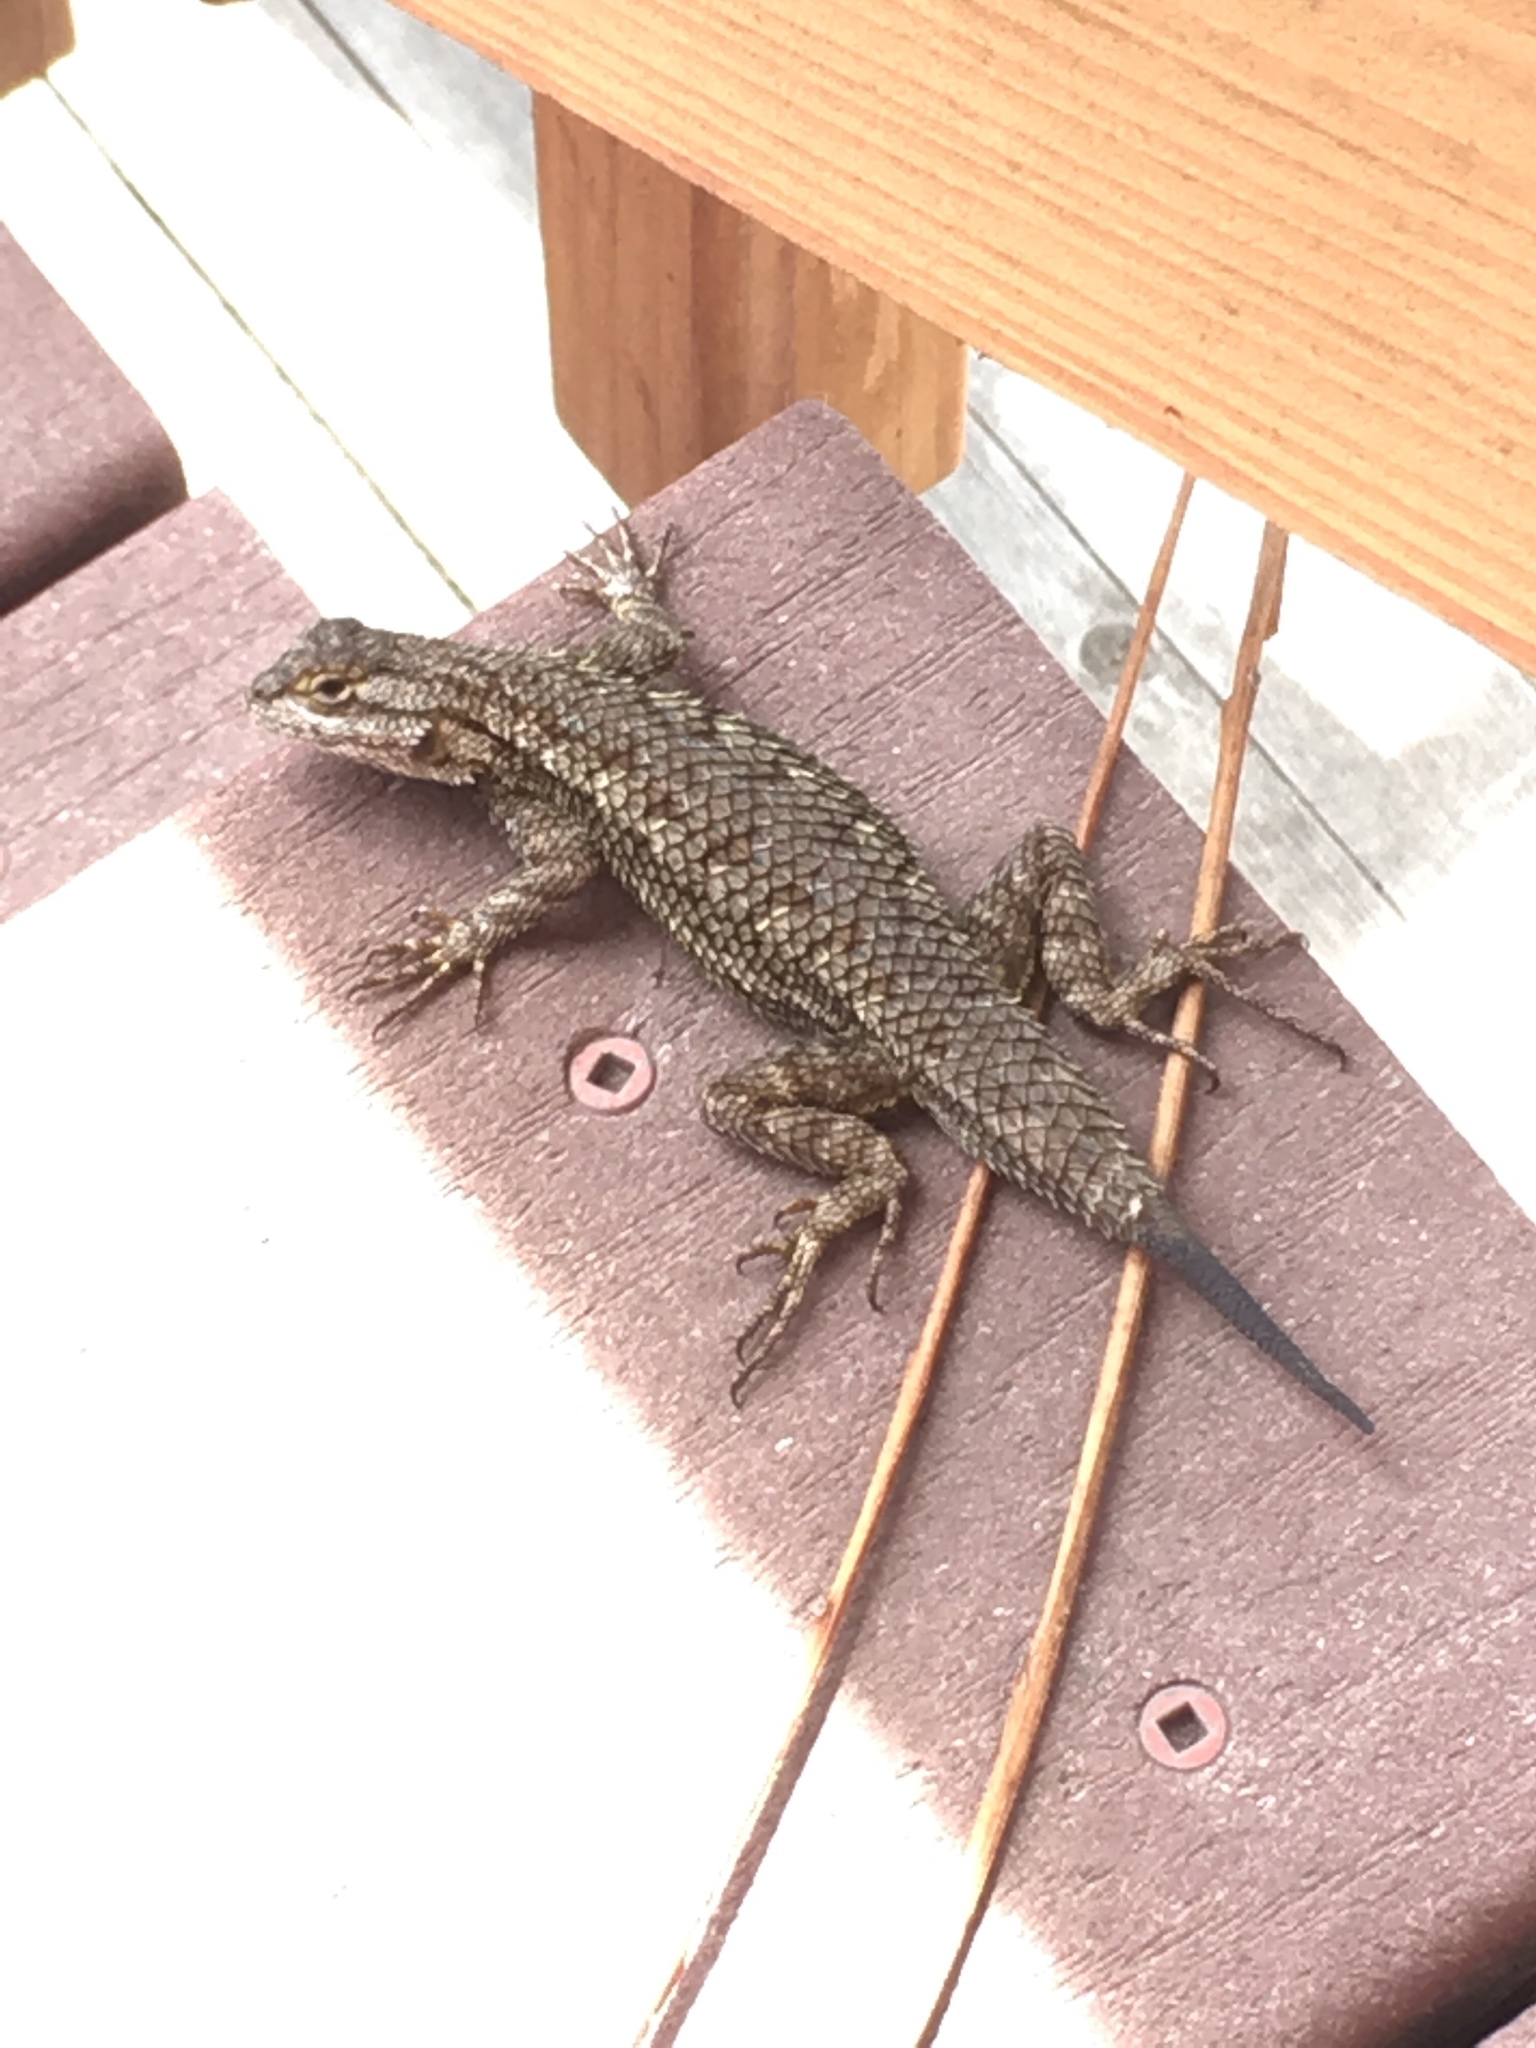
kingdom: Animalia
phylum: Chordata
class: Squamata
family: Phrynosomatidae
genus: Sceloporus
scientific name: Sceloporus occidentalis
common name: Western fence lizard
